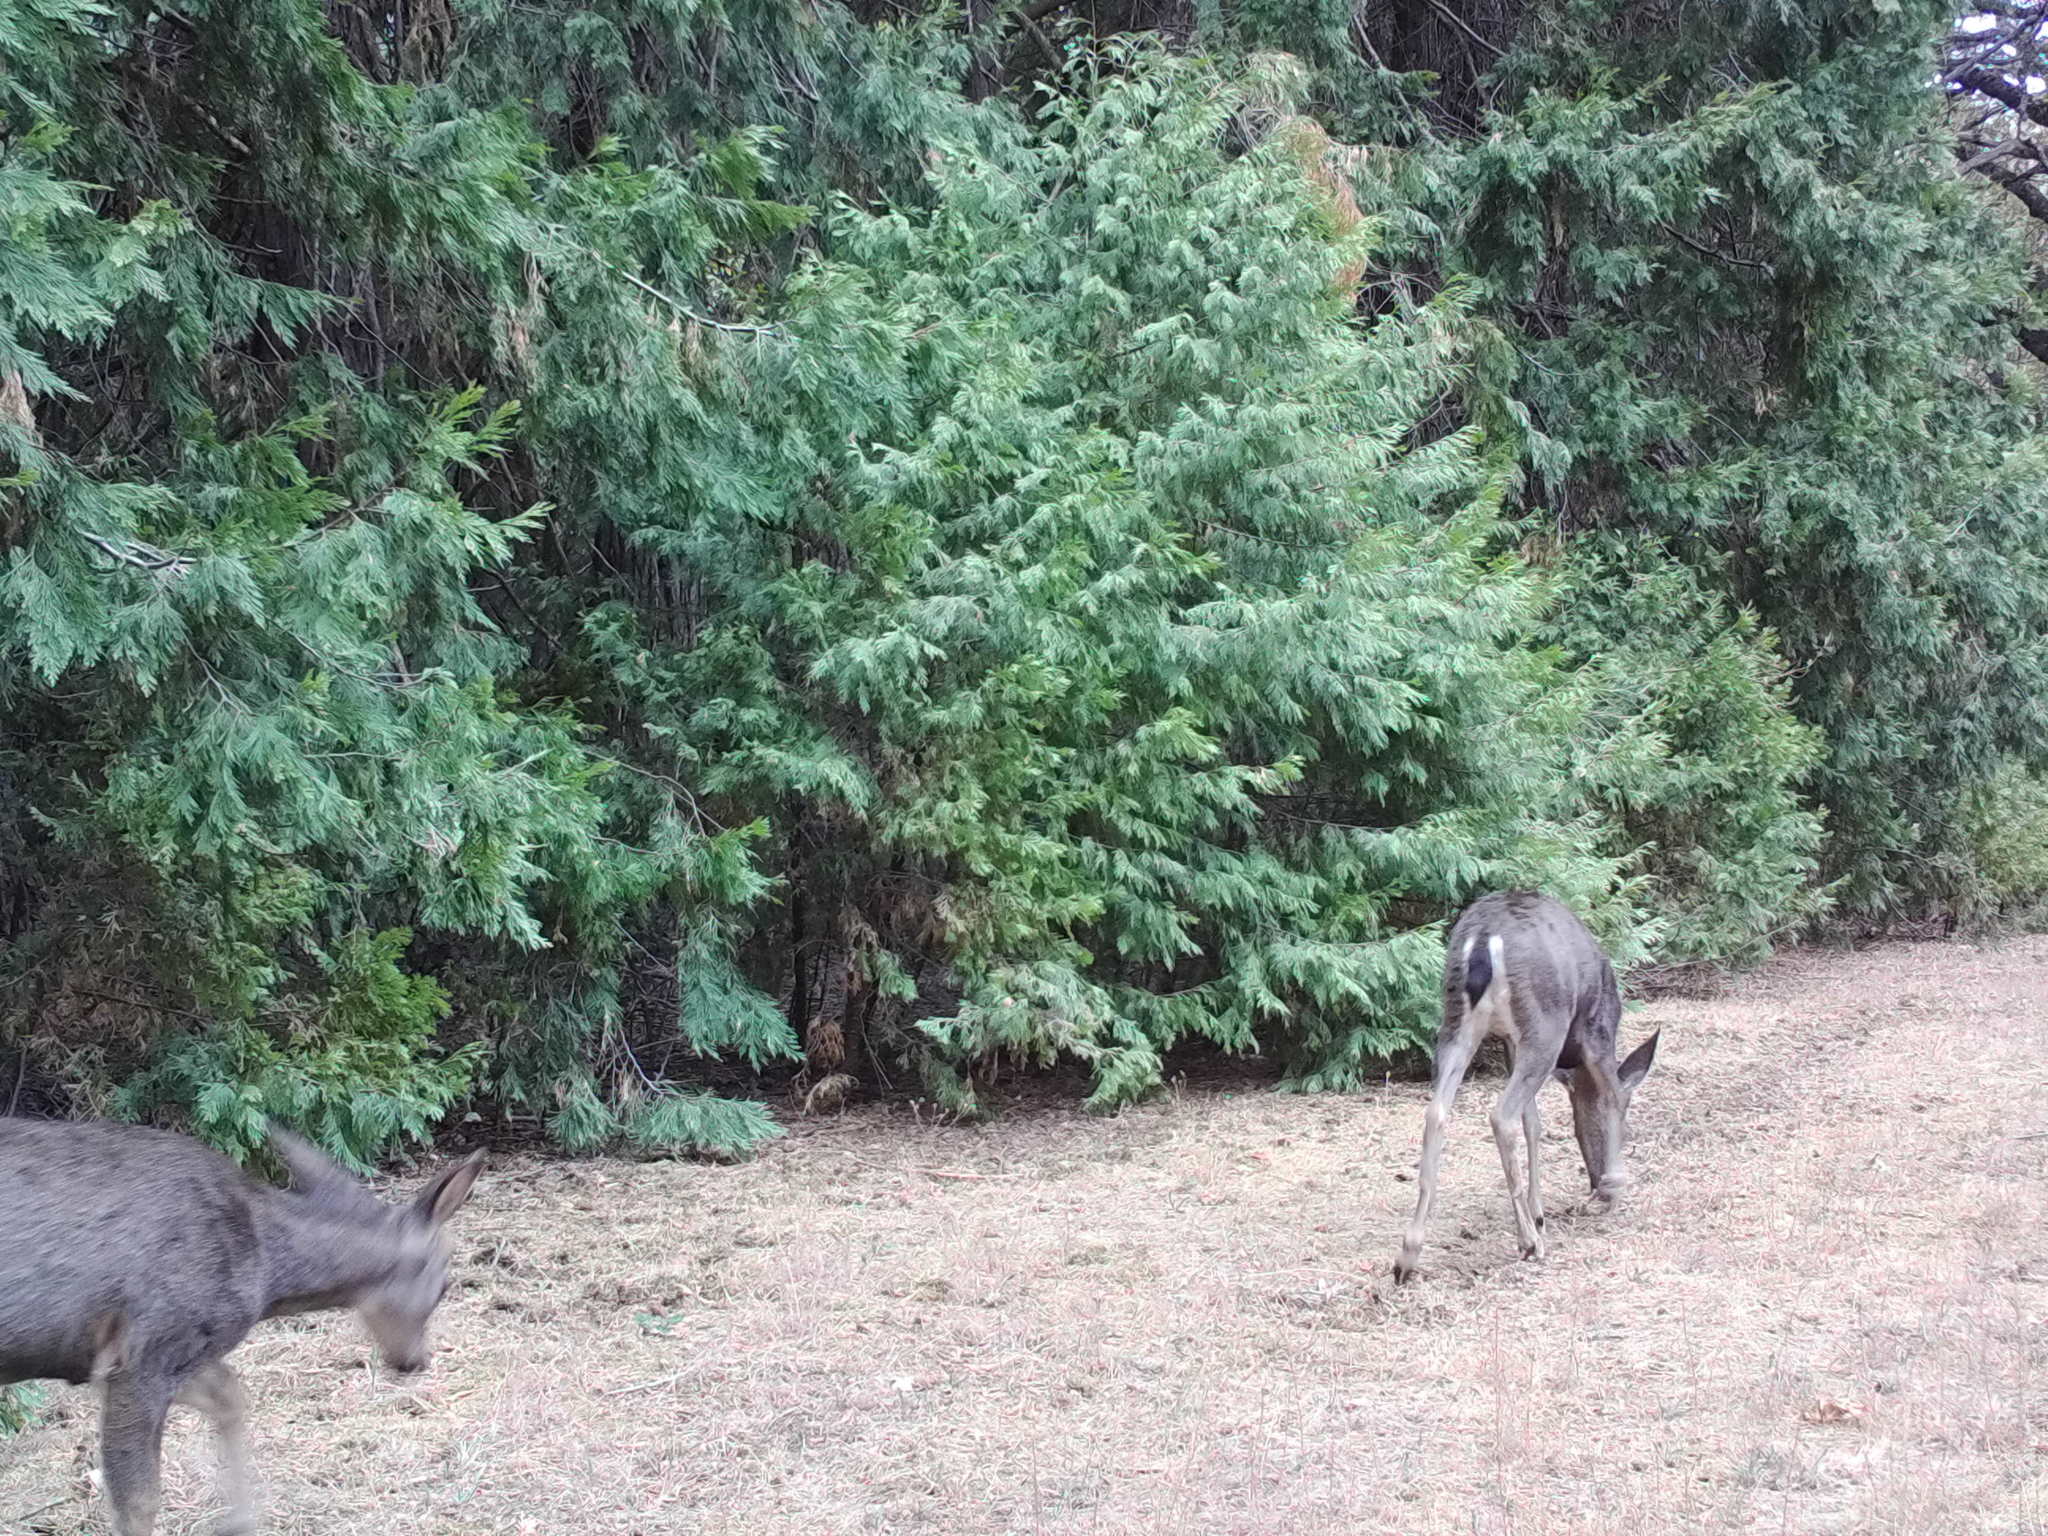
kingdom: Animalia
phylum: Chordata
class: Mammalia
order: Artiodactyla
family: Cervidae
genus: Odocoileus
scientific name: Odocoileus hemionus
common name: Mule deer
